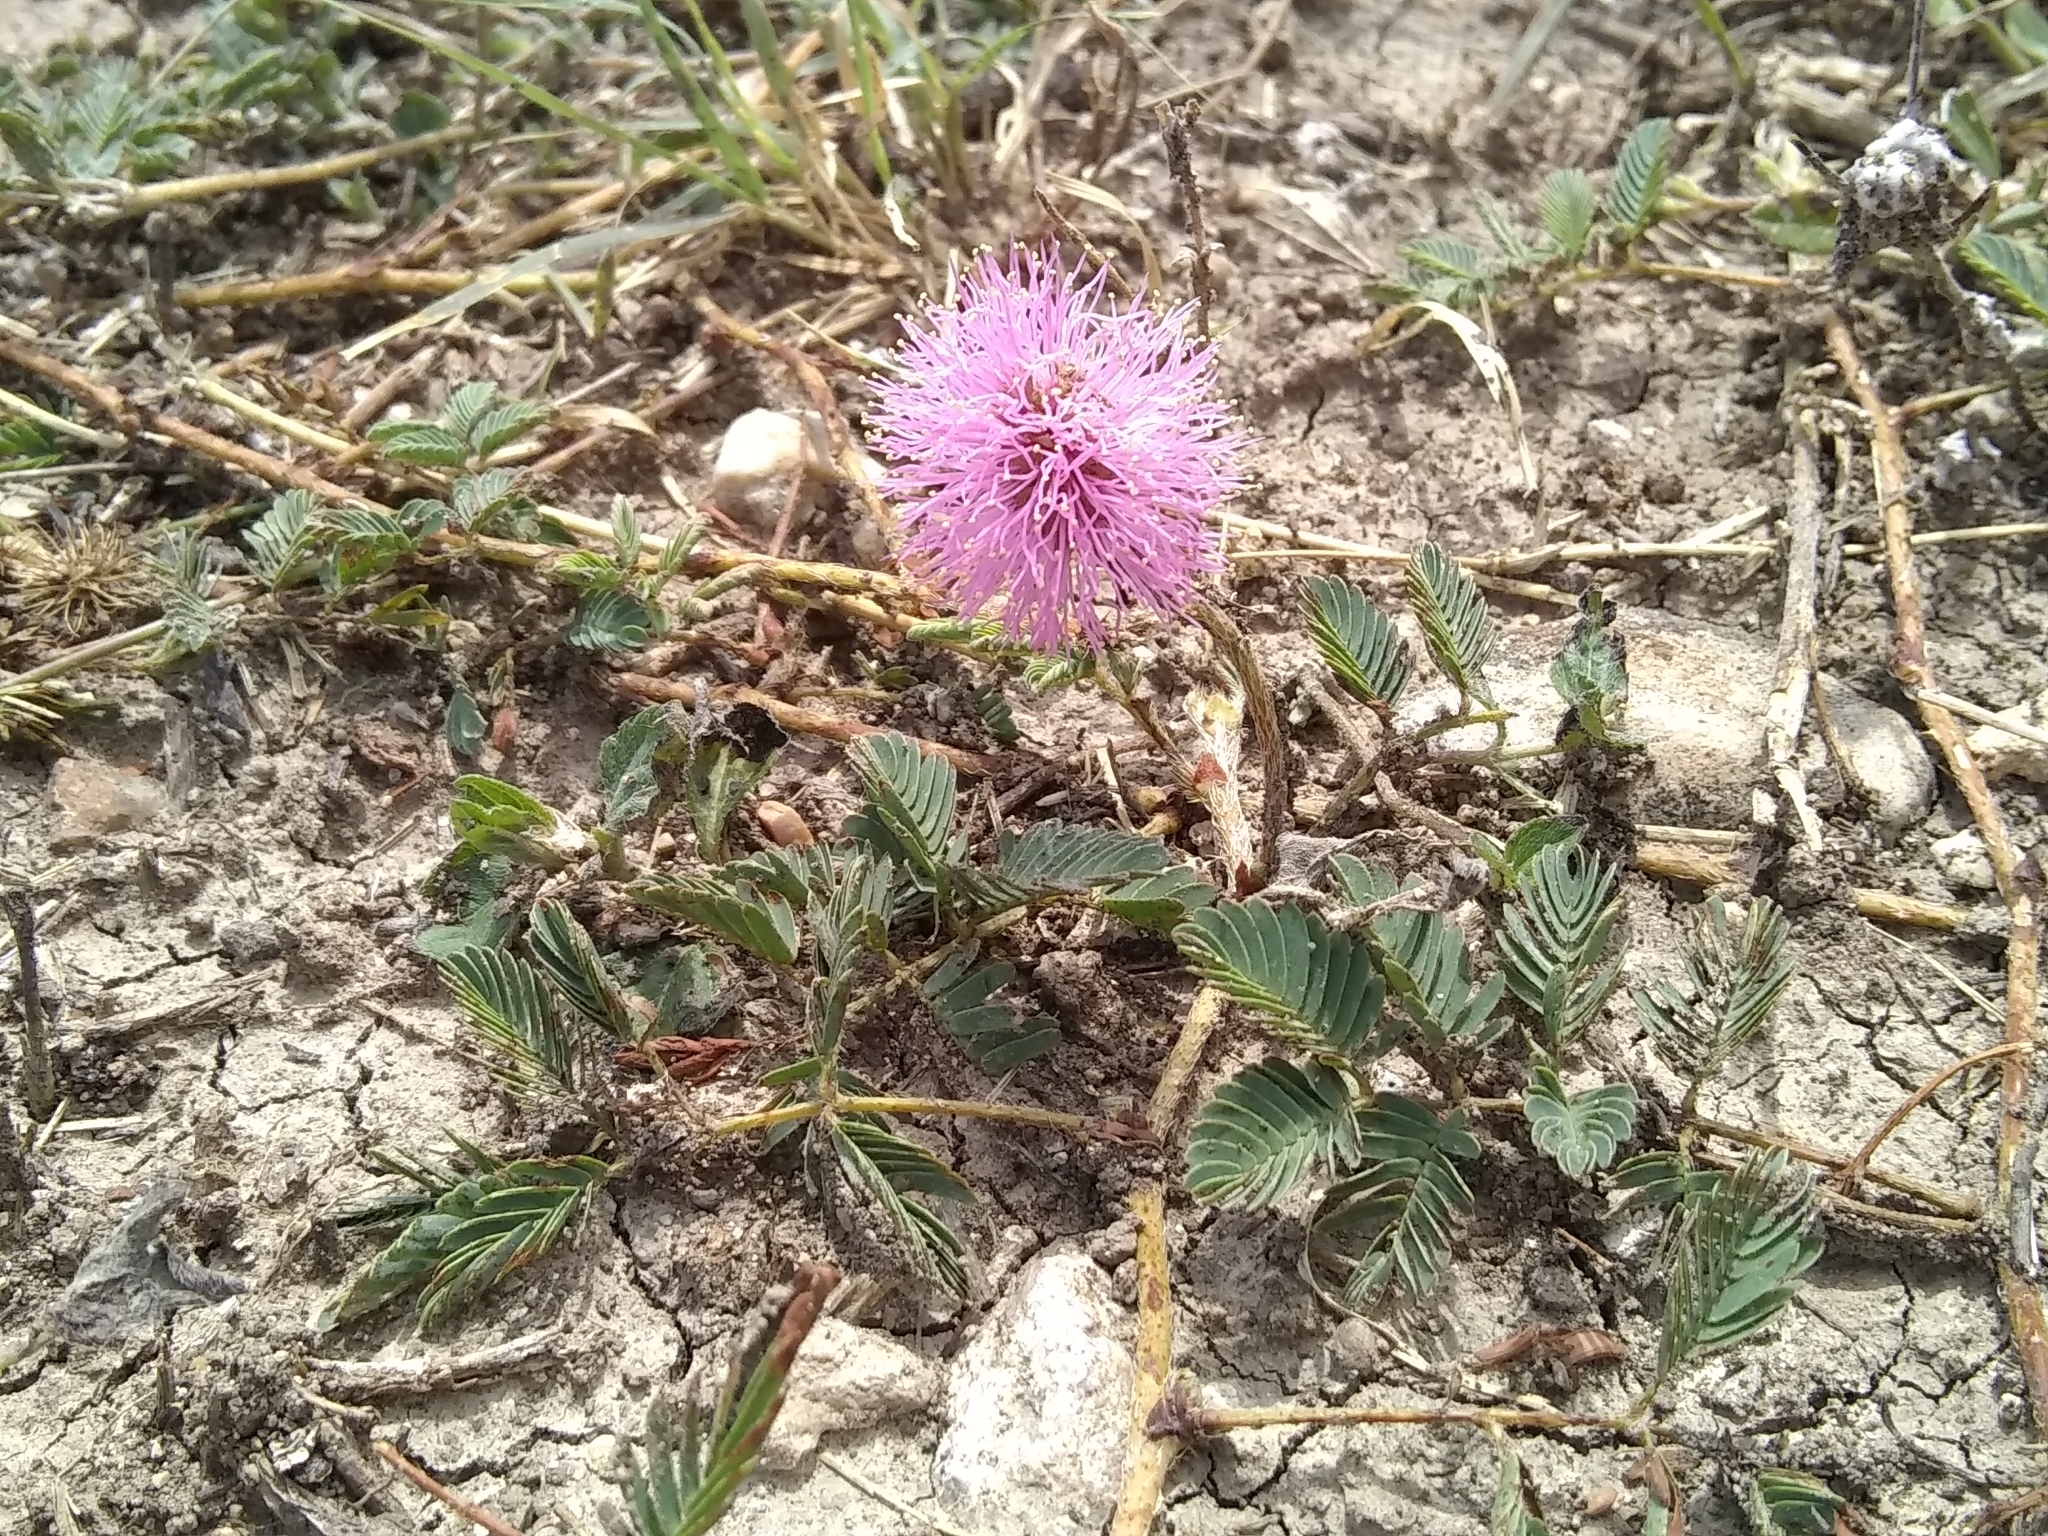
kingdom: Plantae
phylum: Tracheophyta
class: Magnoliopsida
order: Fabales
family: Fabaceae
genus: Mimosa
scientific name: Mimosa strigillosa
